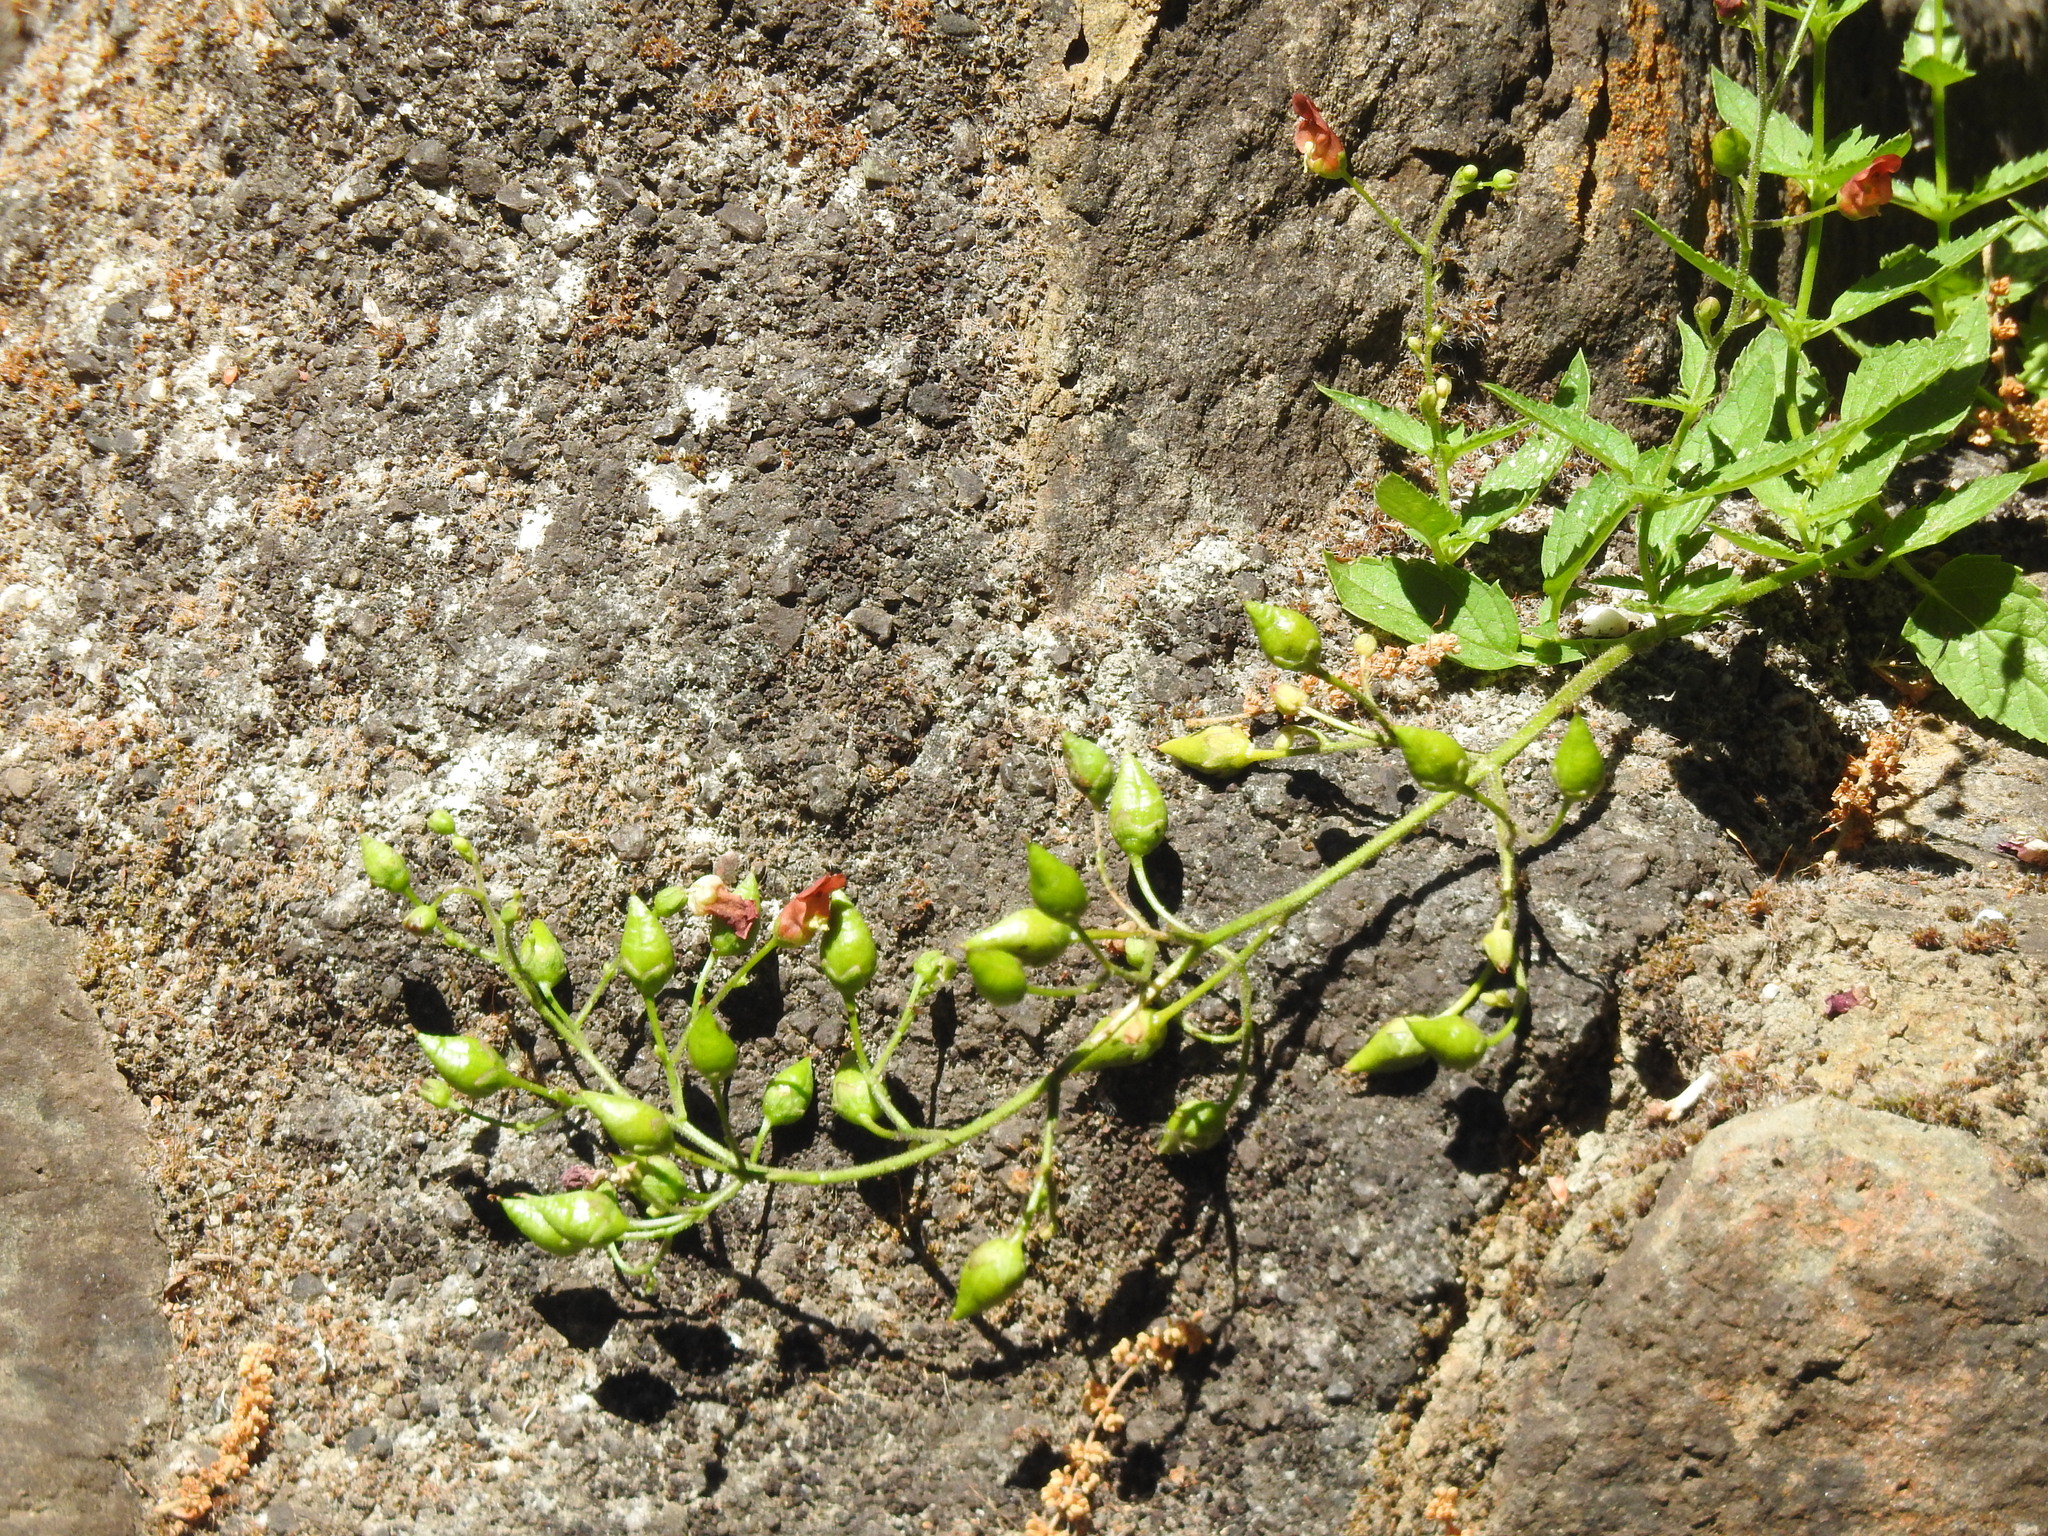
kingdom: Plantae
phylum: Tracheophyta
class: Magnoliopsida
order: Lamiales
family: Scrophulariaceae
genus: Scrophularia
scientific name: Scrophularia californica
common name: California figwort
